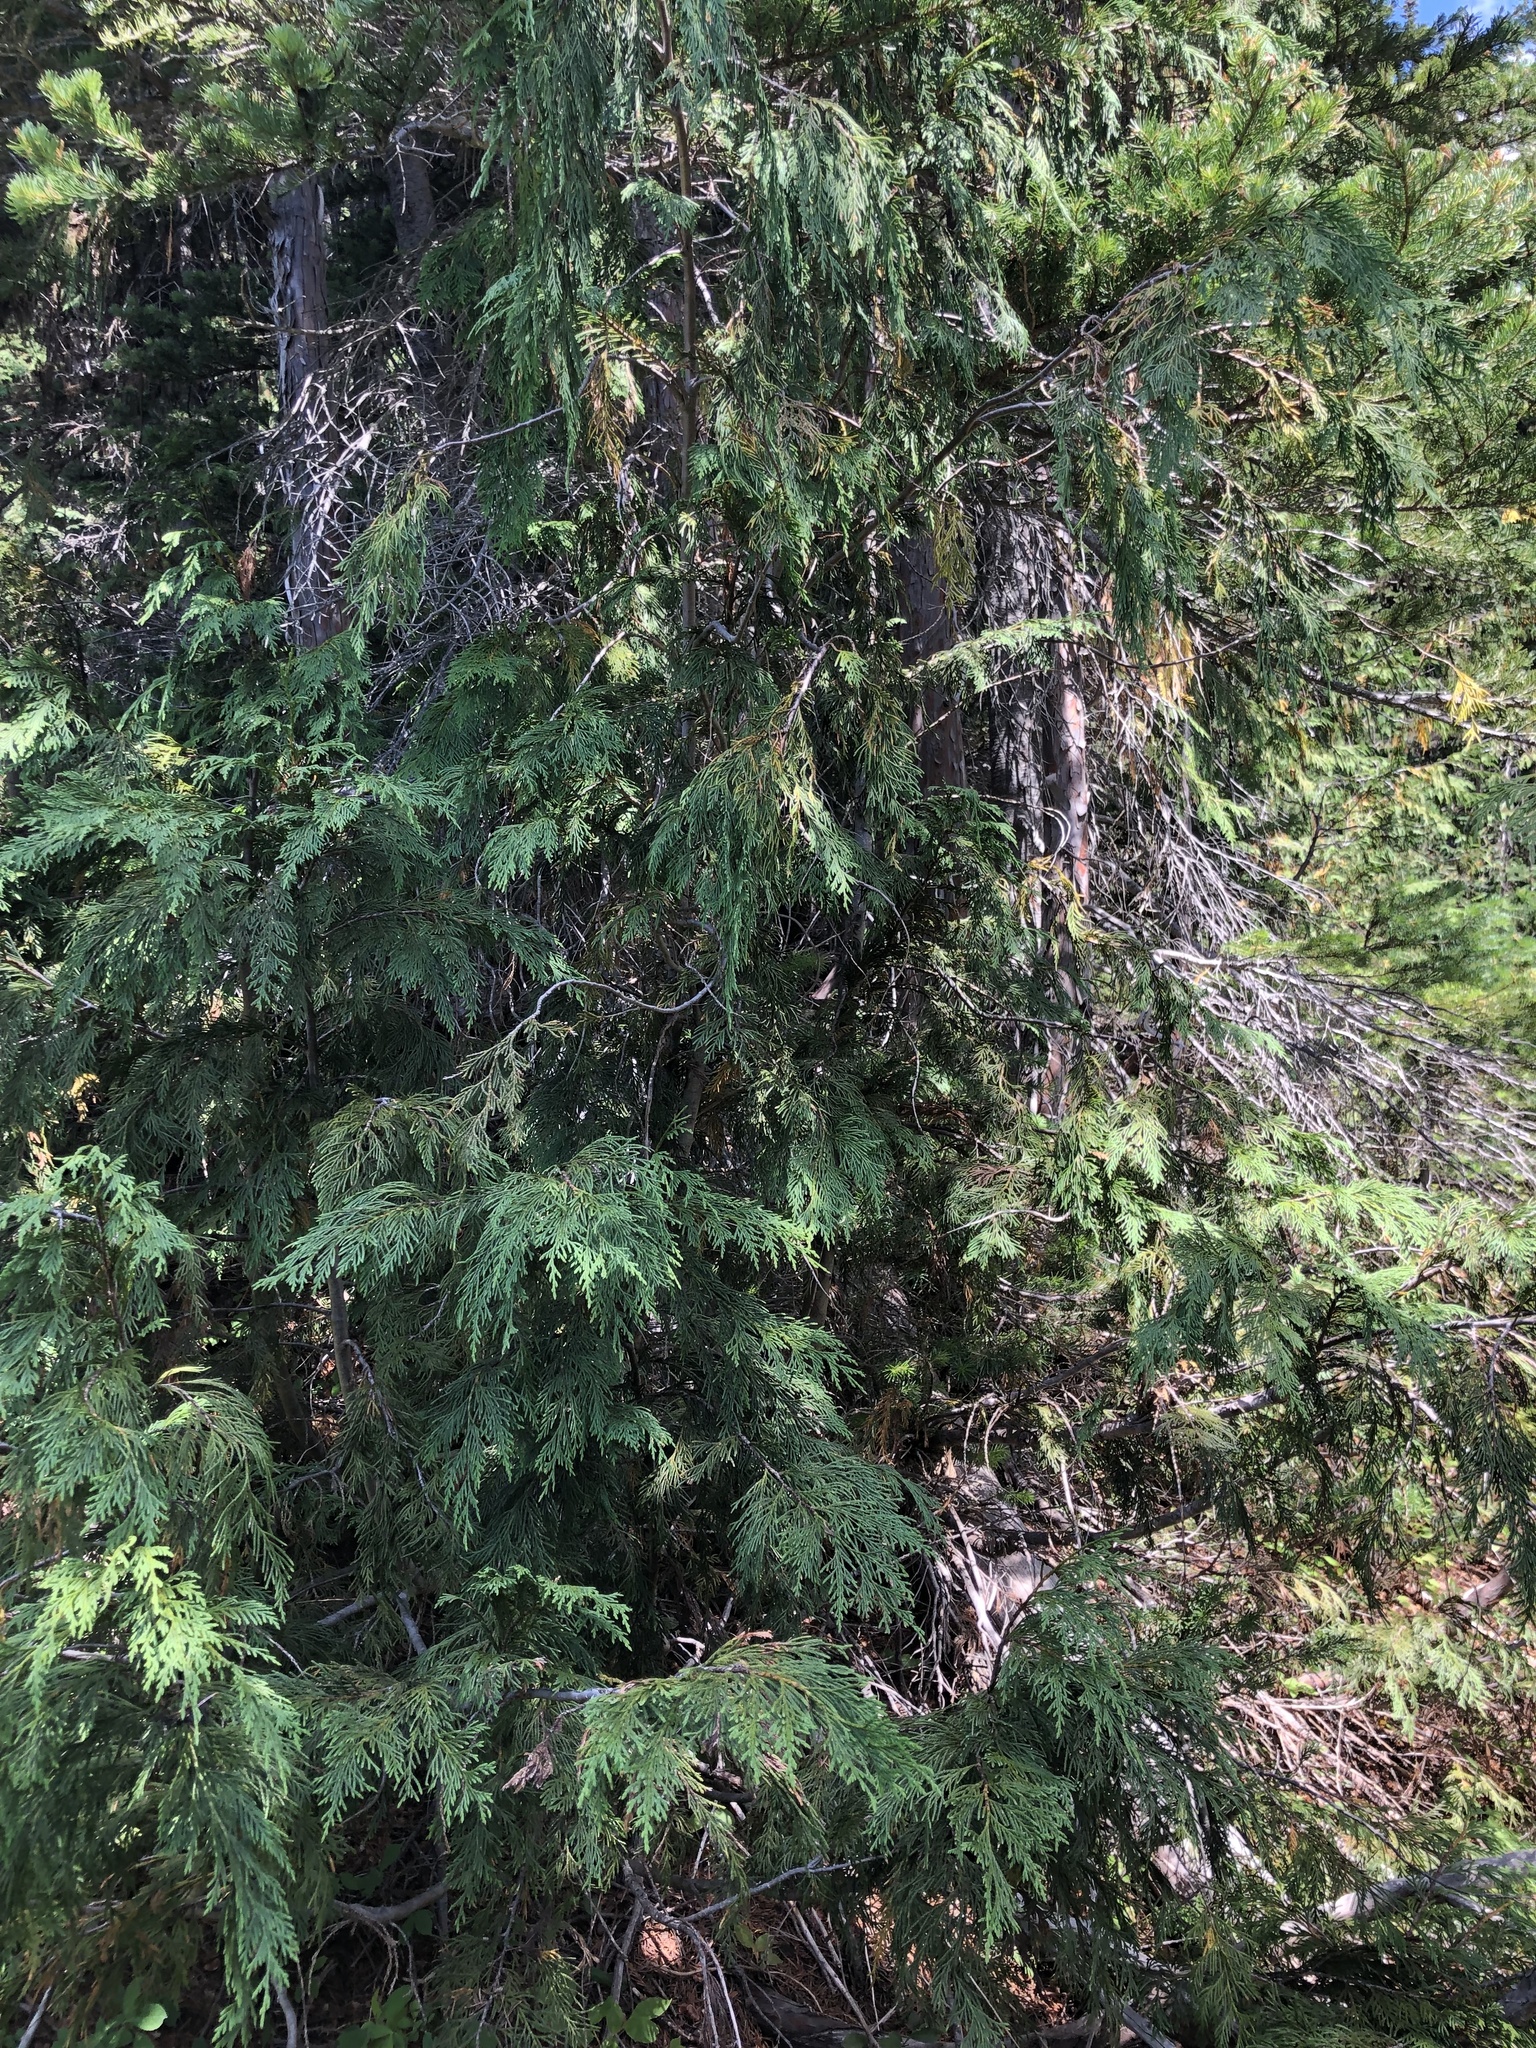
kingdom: Plantae
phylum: Tracheophyta
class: Pinopsida
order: Pinales
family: Cupressaceae
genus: Xanthocyparis
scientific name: Xanthocyparis nootkatensis
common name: Nootka cypress
